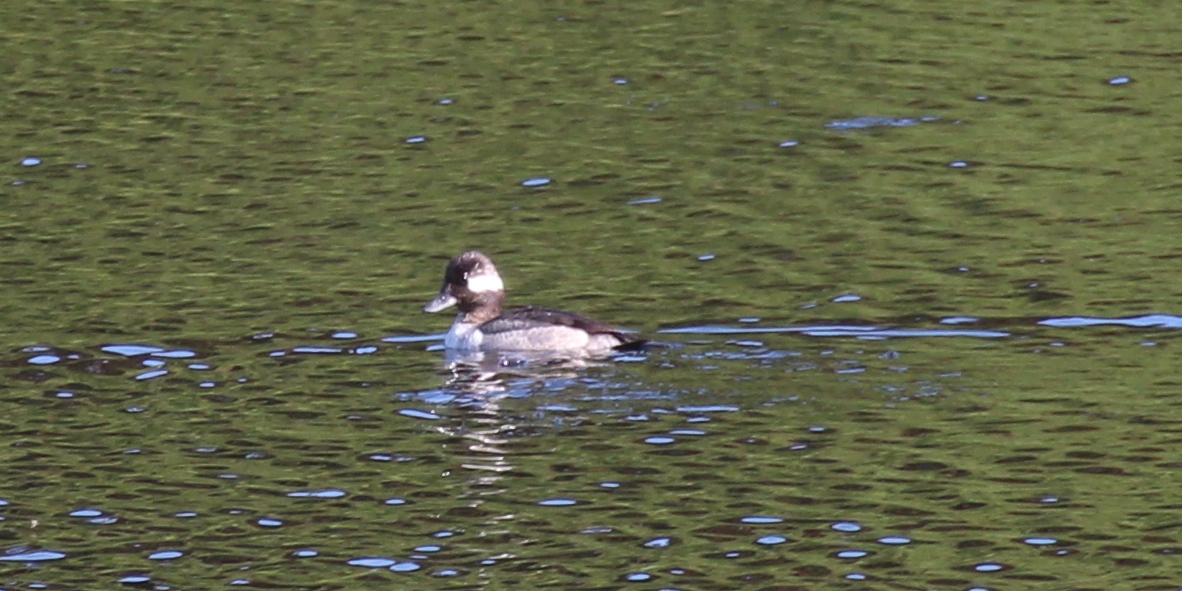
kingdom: Animalia
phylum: Chordata
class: Aves
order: Anseriformes
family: Anatidae
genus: Bucephala
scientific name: Bucephala albeola
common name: Bufflehead
